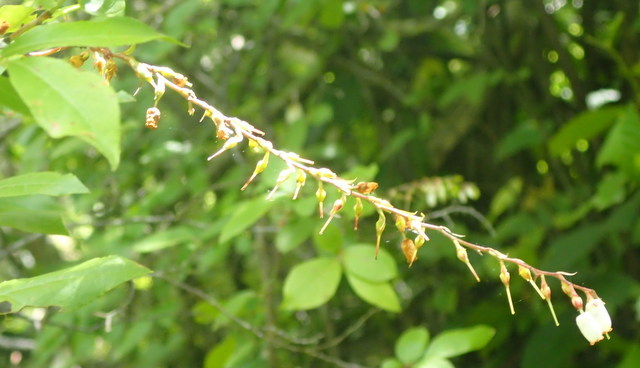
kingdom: Plantae
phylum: Tracheophyta
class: Magnoliopsida
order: Ericales
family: Ericaceae
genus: Eubotrys
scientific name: Eubotrys racemosa
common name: Fetterbush
